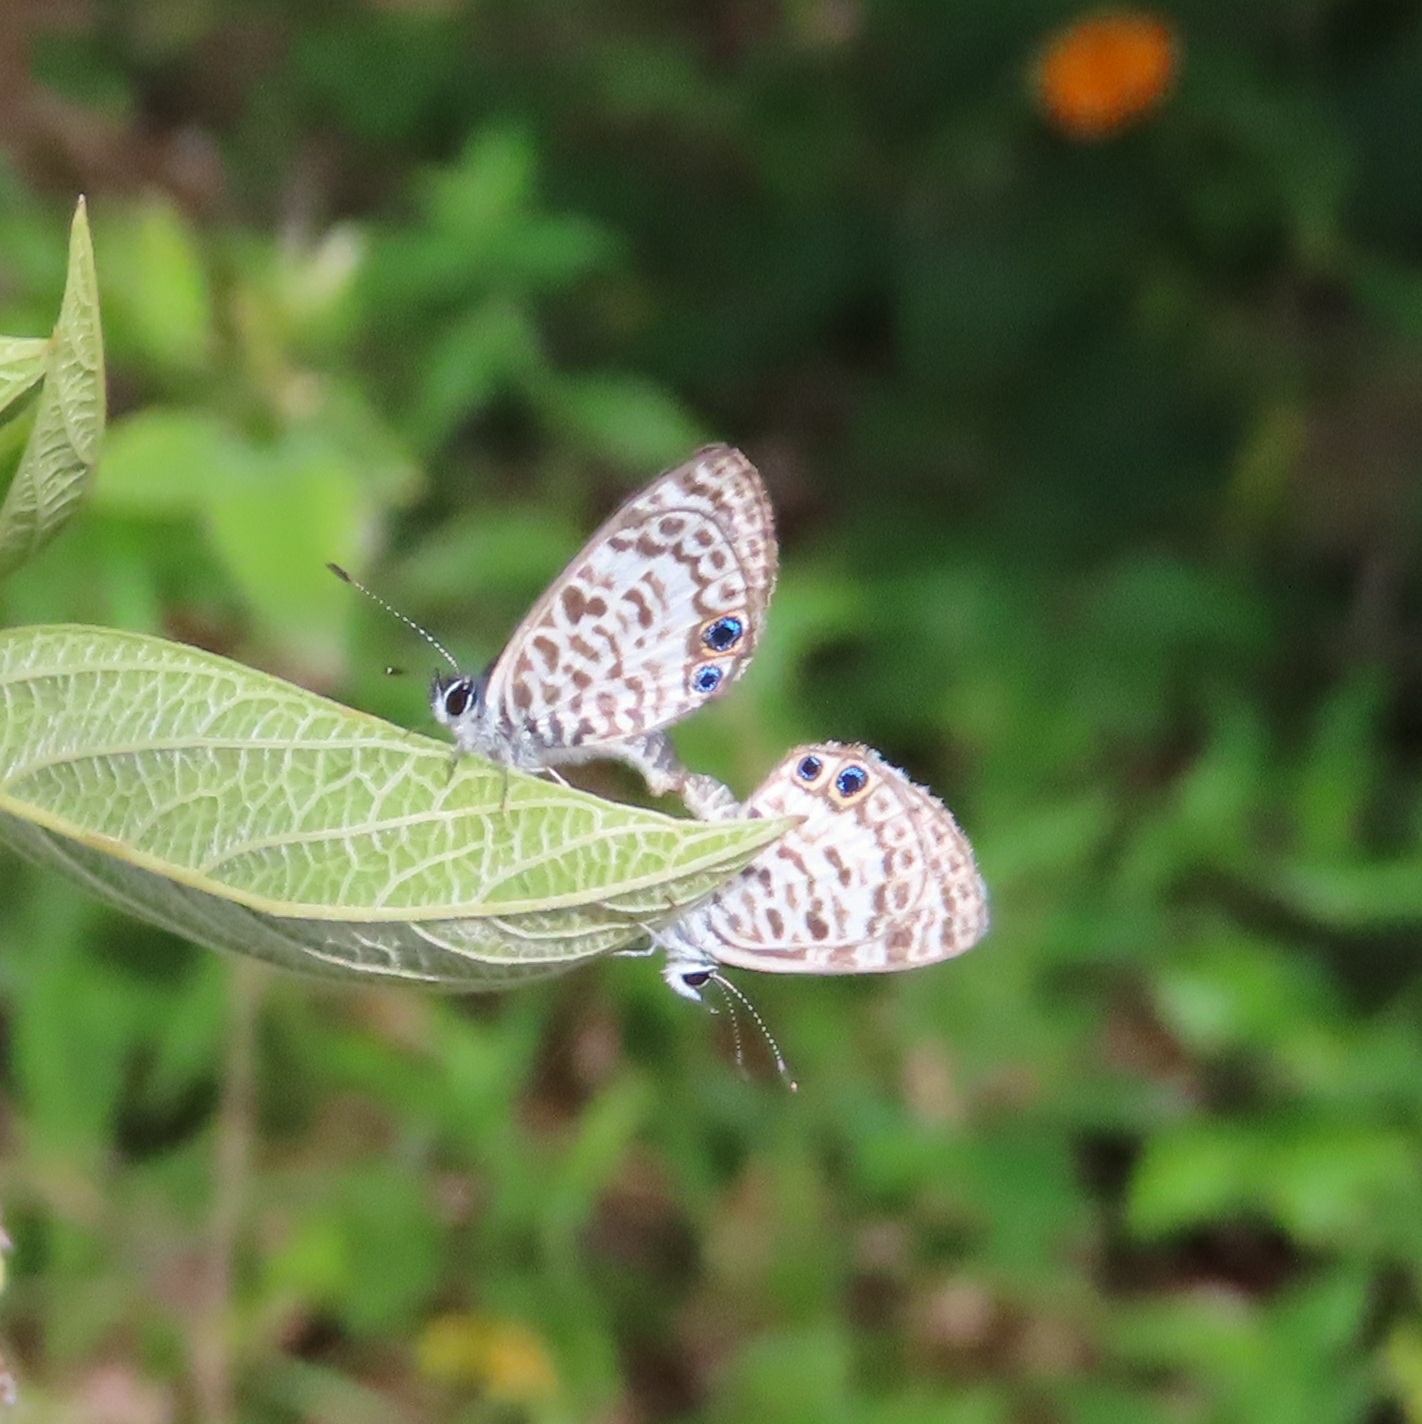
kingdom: Animalia
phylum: Arthropoda
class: Insecta
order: Lepidoptera
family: Lycaenidae
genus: Leptotes
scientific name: Leptotes cassius
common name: Cassius blue
